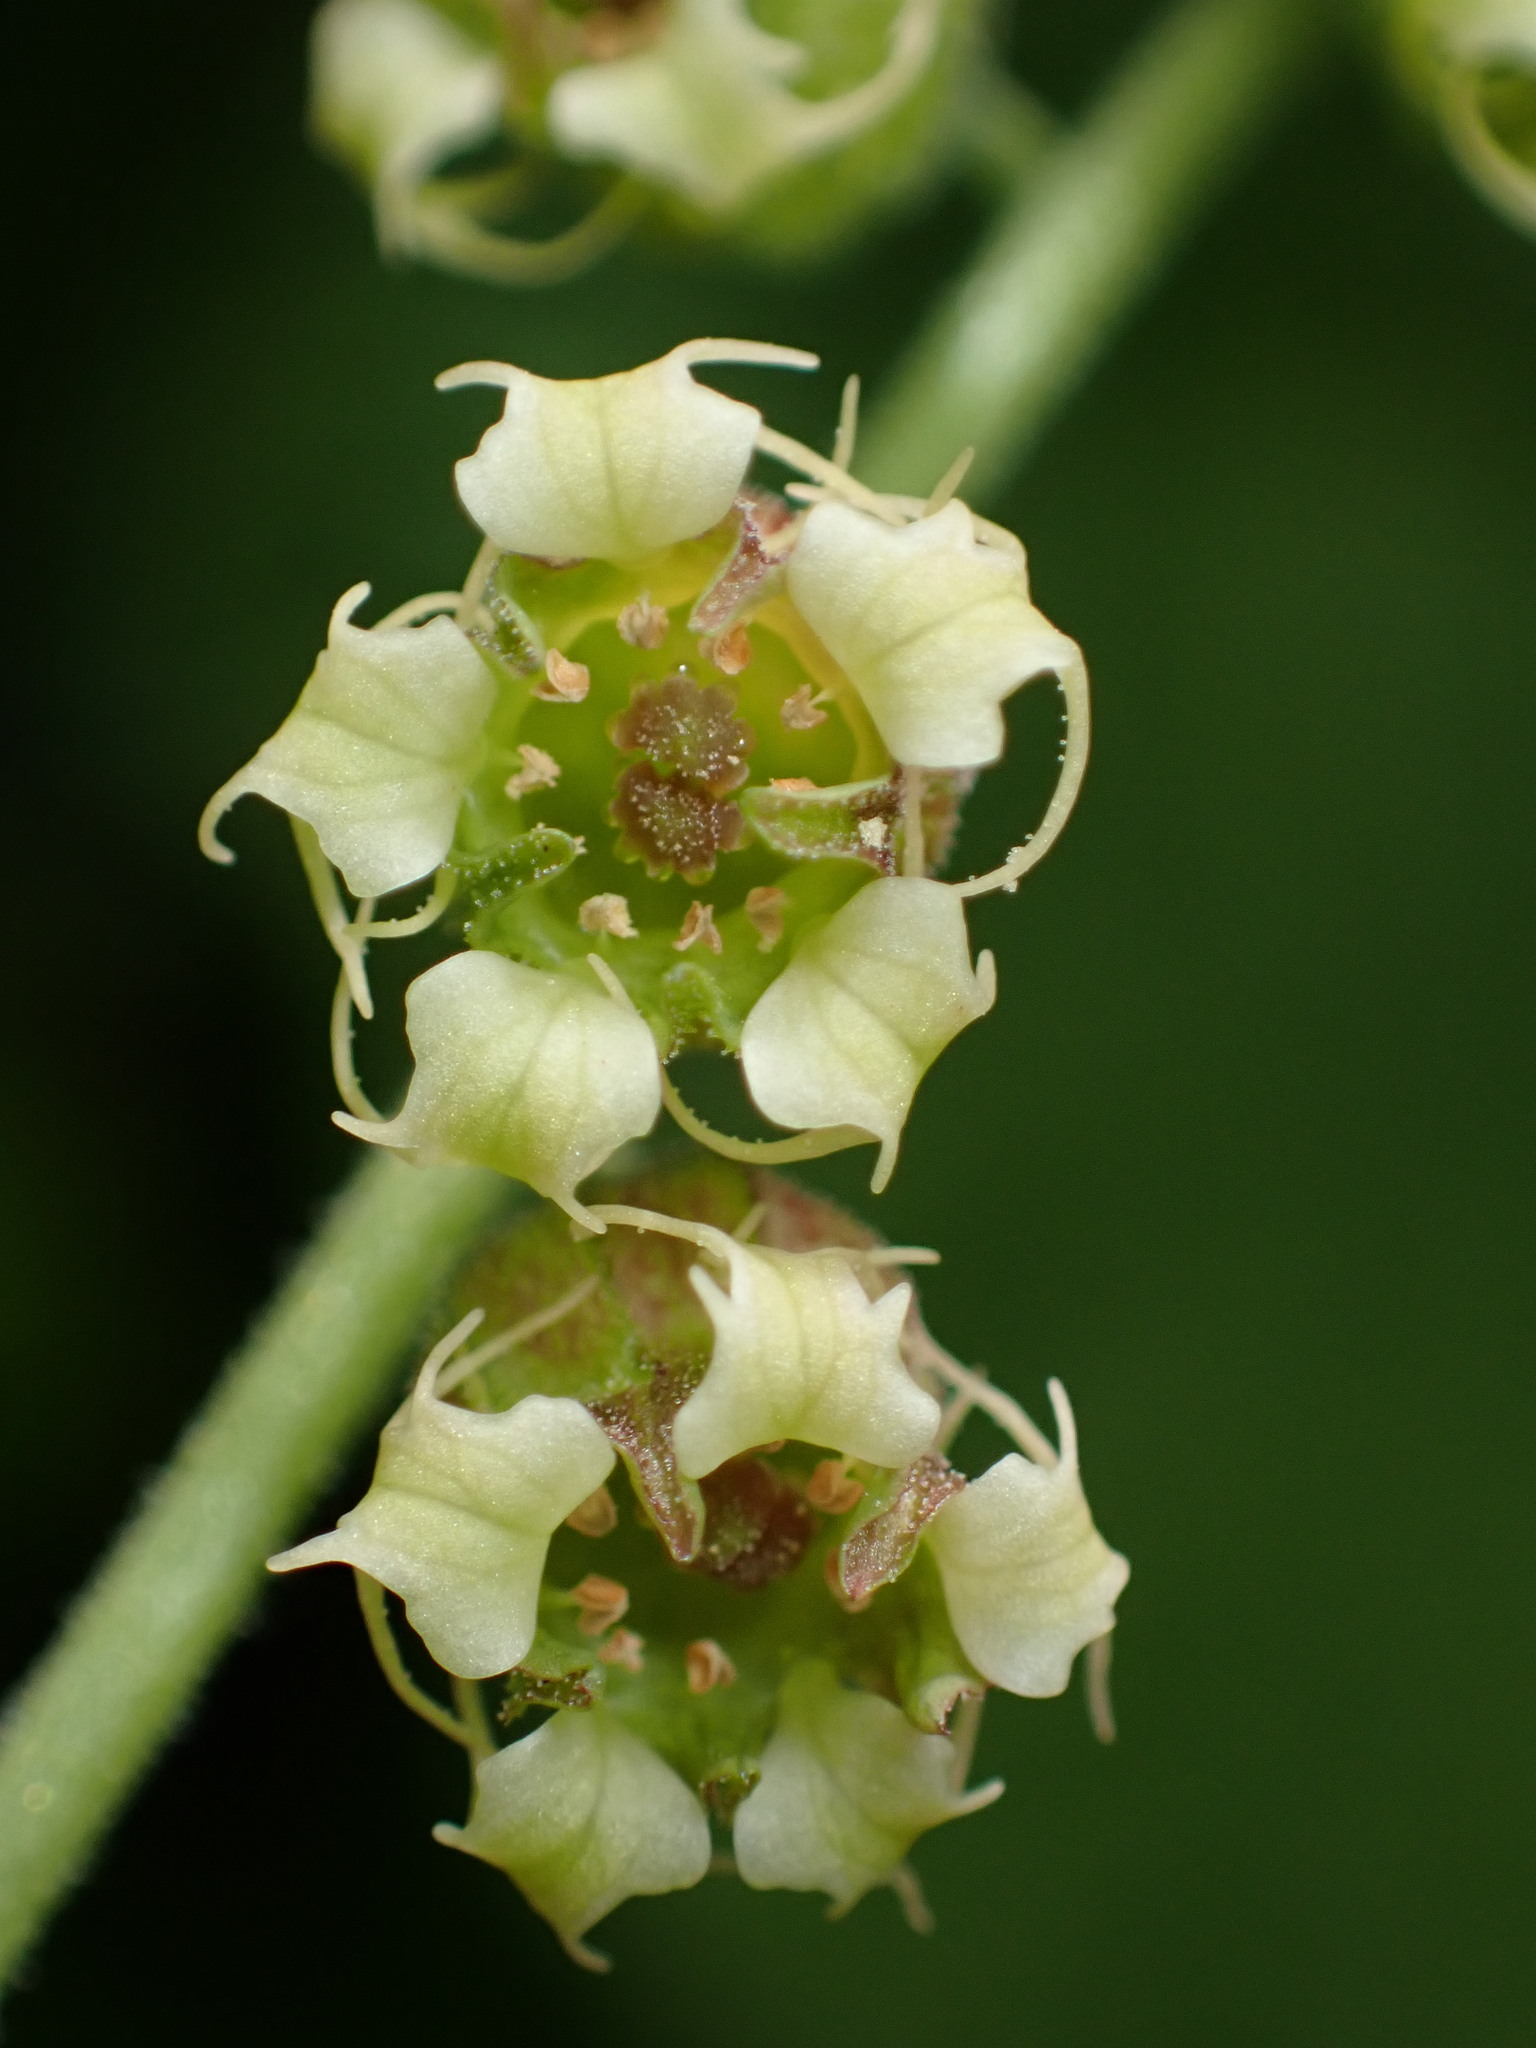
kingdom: Plantae
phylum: Tracheophyta
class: Magnoliopsida
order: Saxifragales
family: Saxifragaceae
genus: Tellima
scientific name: Tellima grandiflora
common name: Fringecups
